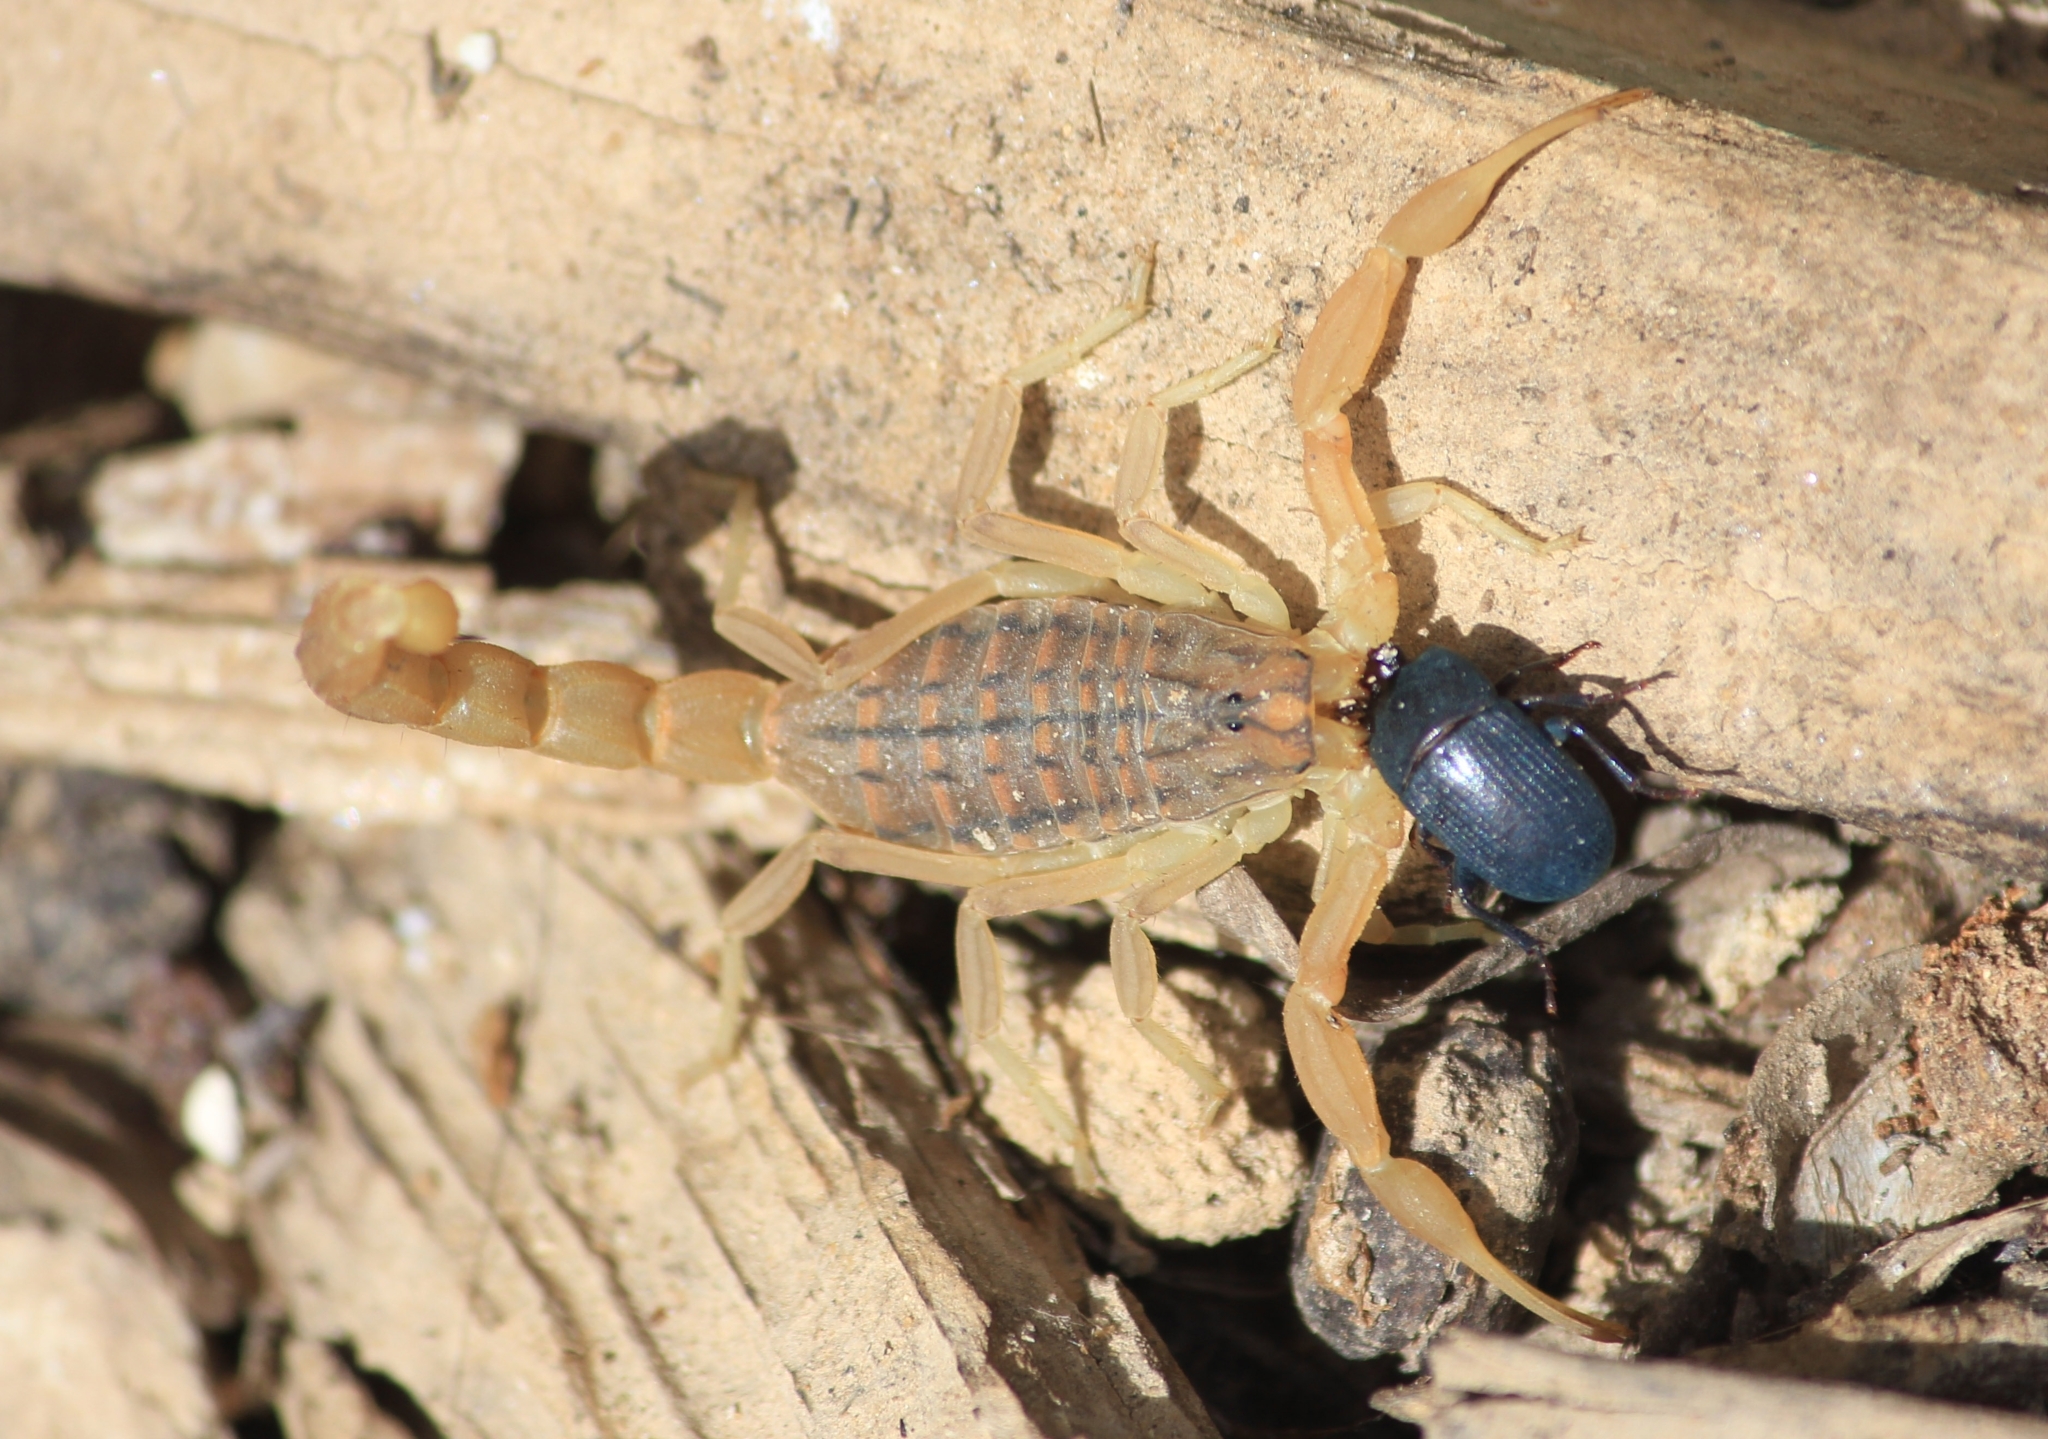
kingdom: Animalia
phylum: Arthropoda
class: Arachnida
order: Scorpiones
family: Buthidae
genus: Aegaeobuthus
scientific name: Aegaeobuthus gibbosus
